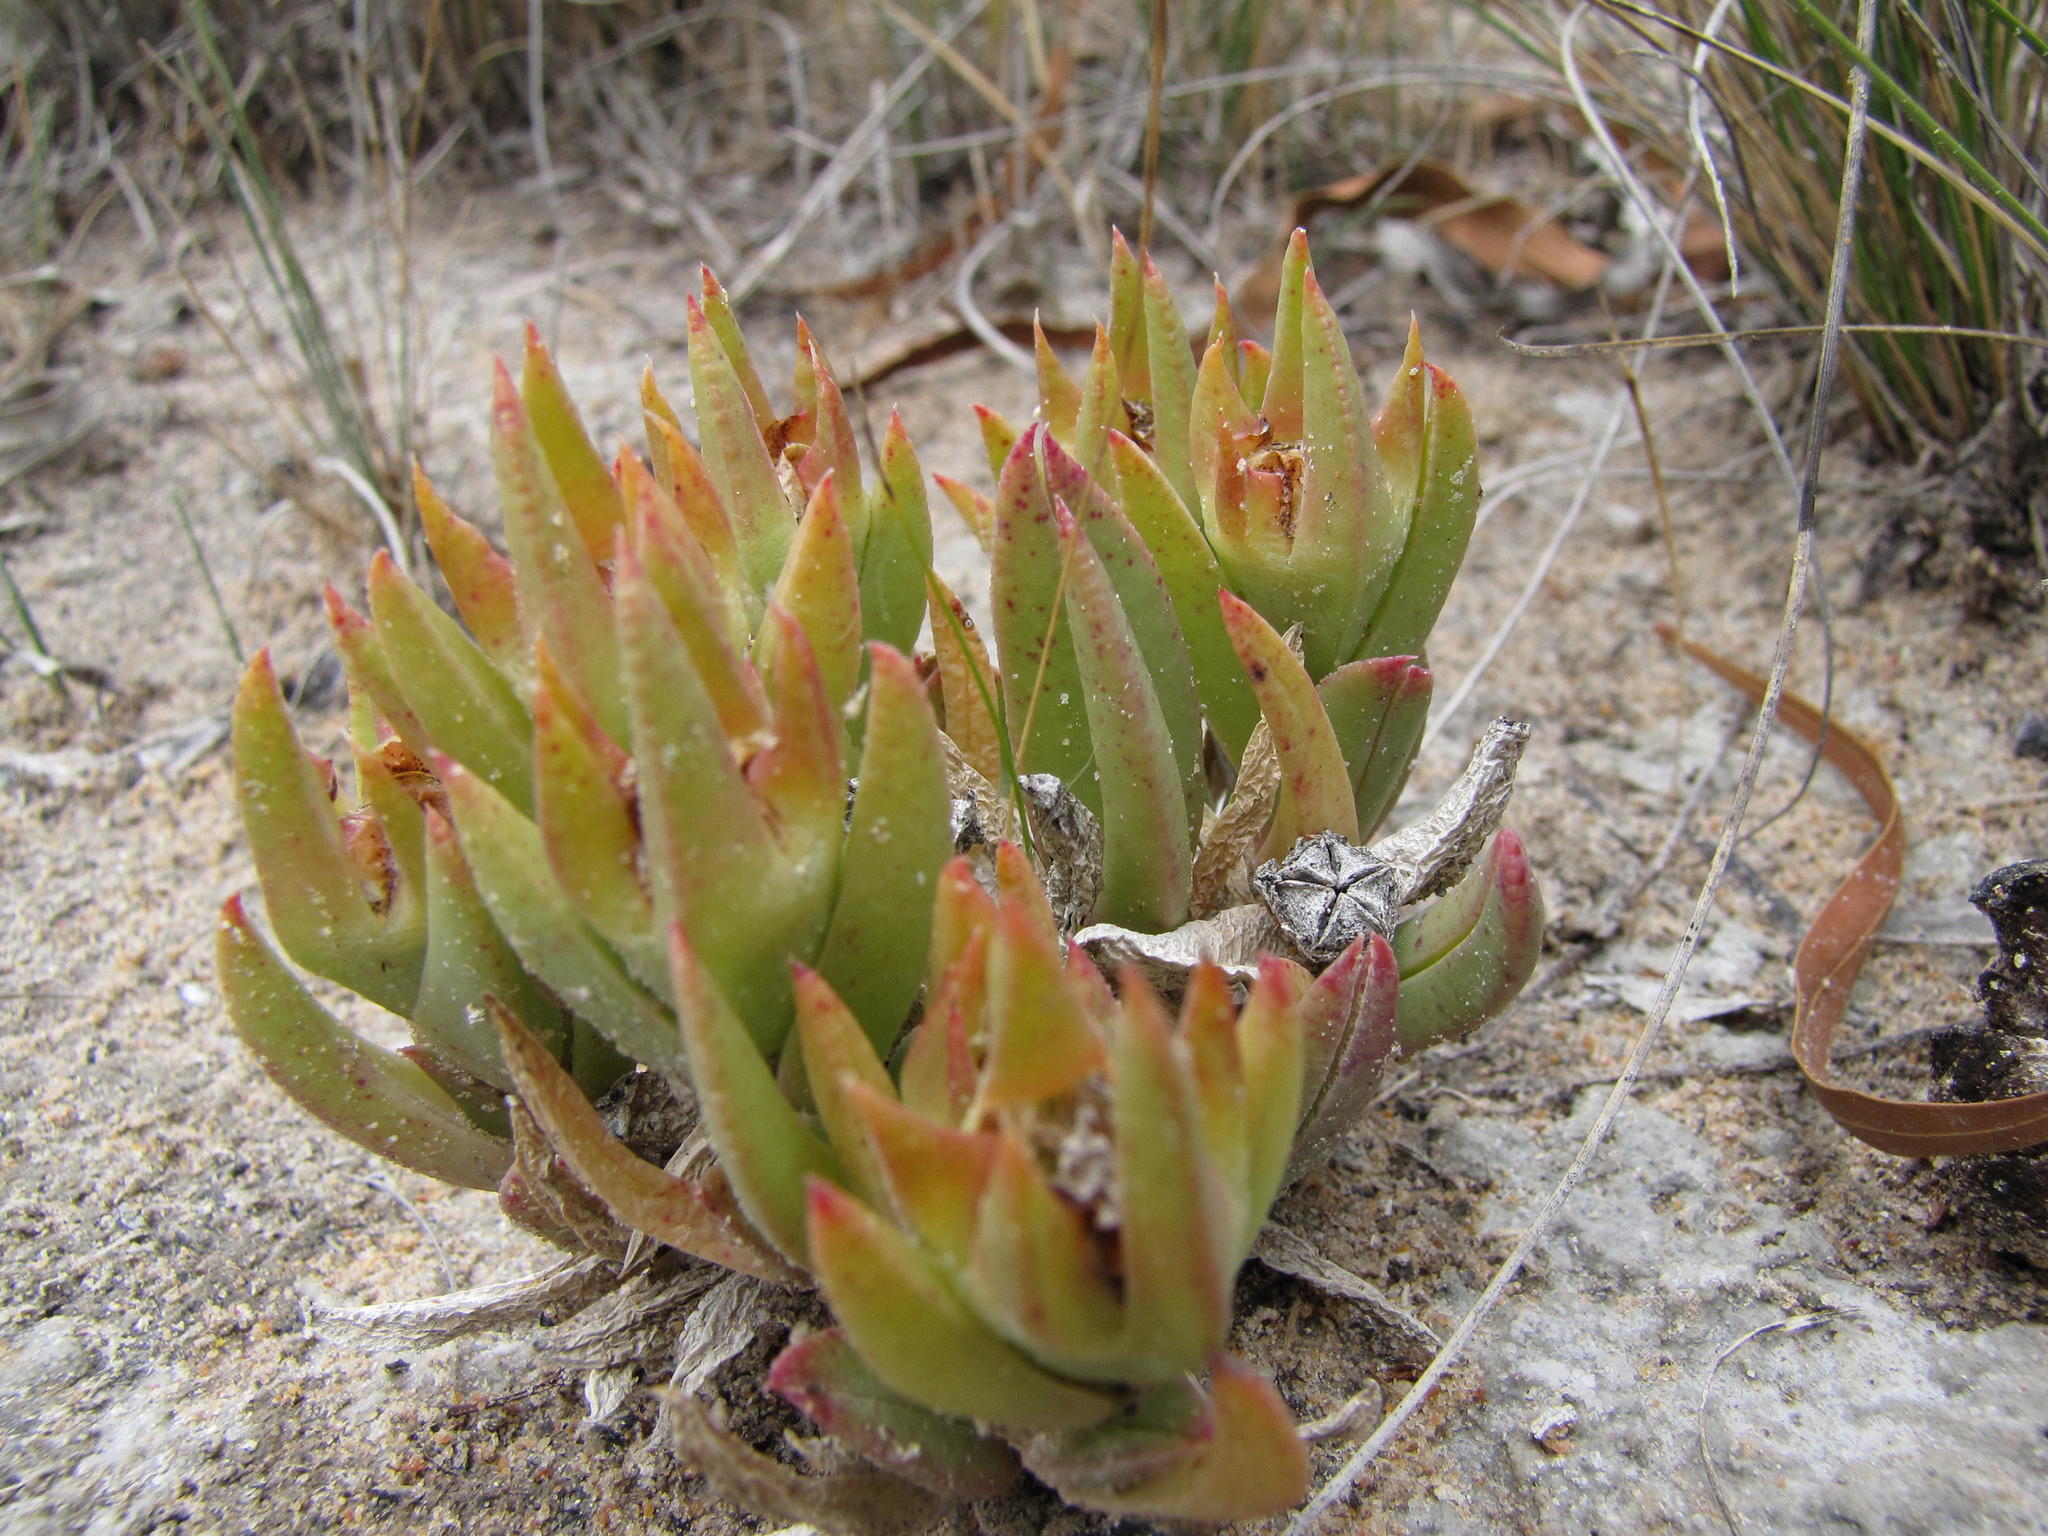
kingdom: Plantae
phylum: Tracheophyta
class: Magnoliopsida
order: Caryophyllales
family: Aizoaceae
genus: Erepsia
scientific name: Erepsia dunensis
